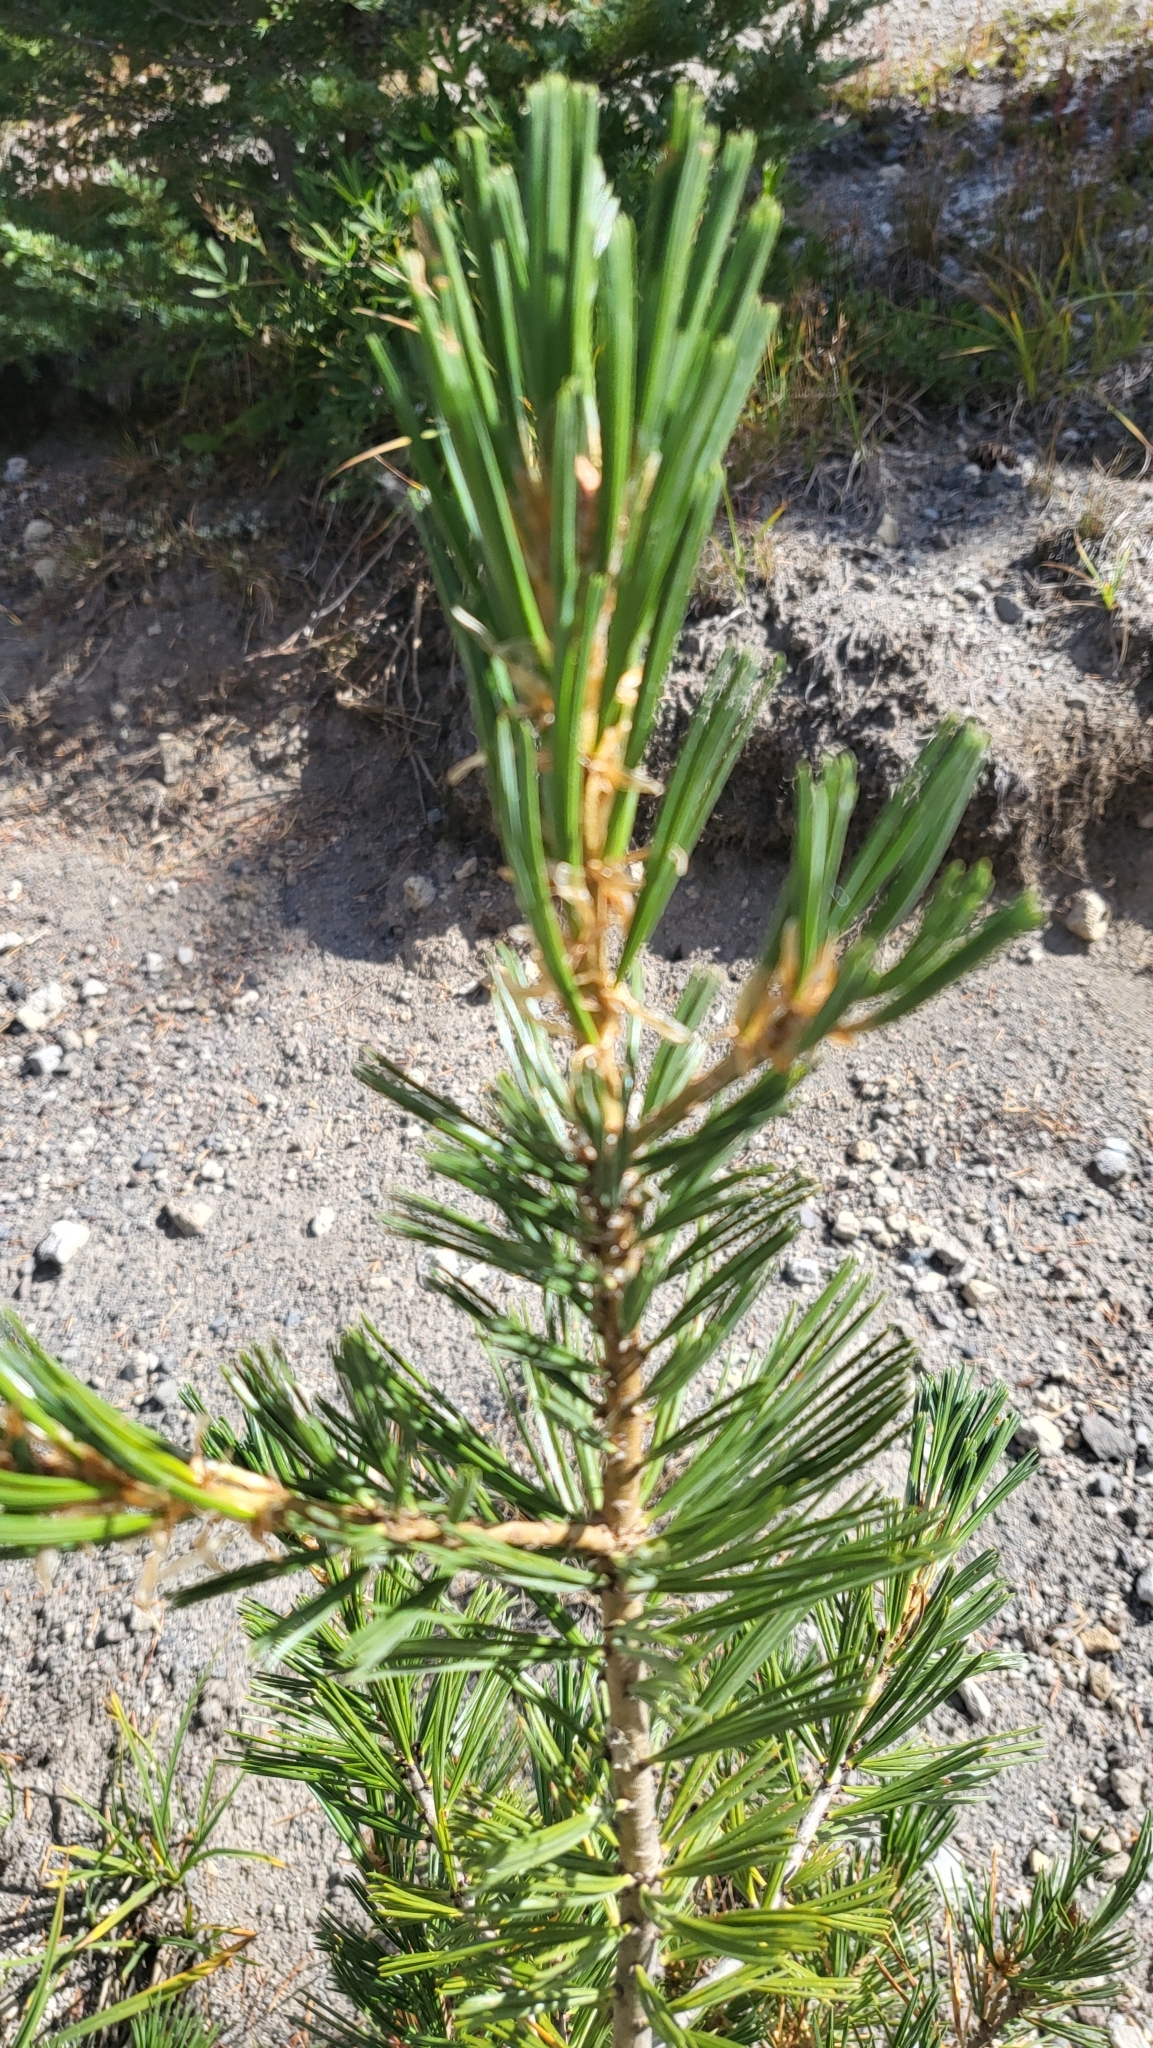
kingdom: Plantae
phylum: Tracheophyta
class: Pinopsida
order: Pinales
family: Pinaceae
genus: Pinus
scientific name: Pinus albicaulis
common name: Whitebark pine
